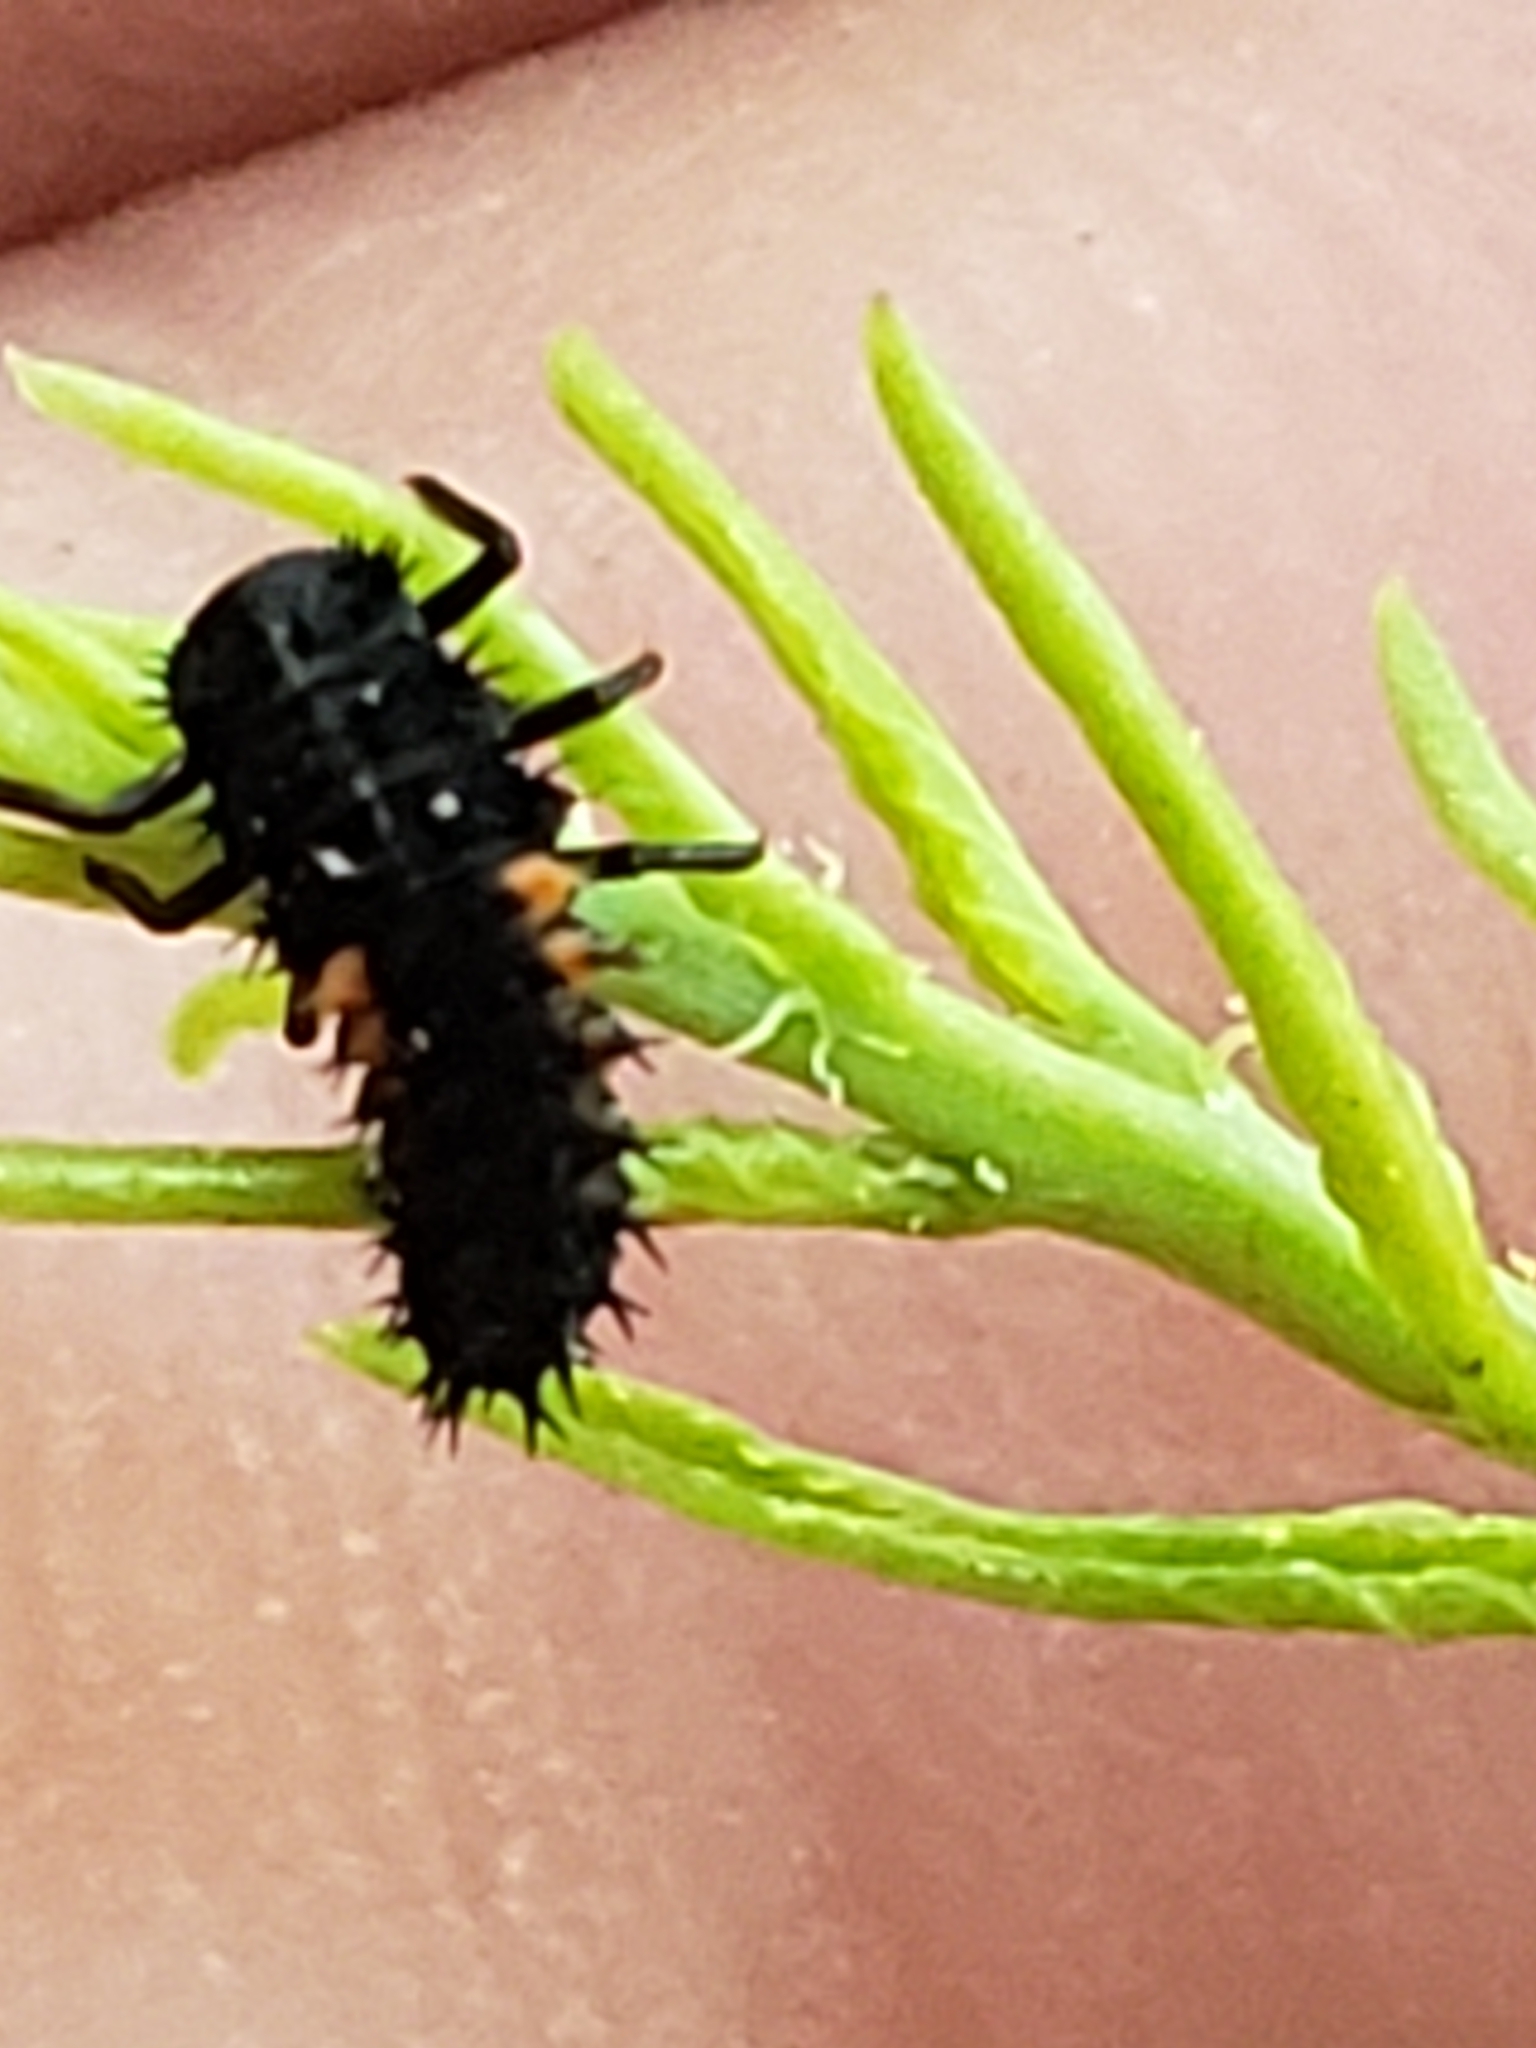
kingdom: Animalia
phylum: Arthropoda
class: Insecta
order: Coleoptera
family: Coccinellidae
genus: Harmonia
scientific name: Harmonia axyridis
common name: Harlequin ladybird
